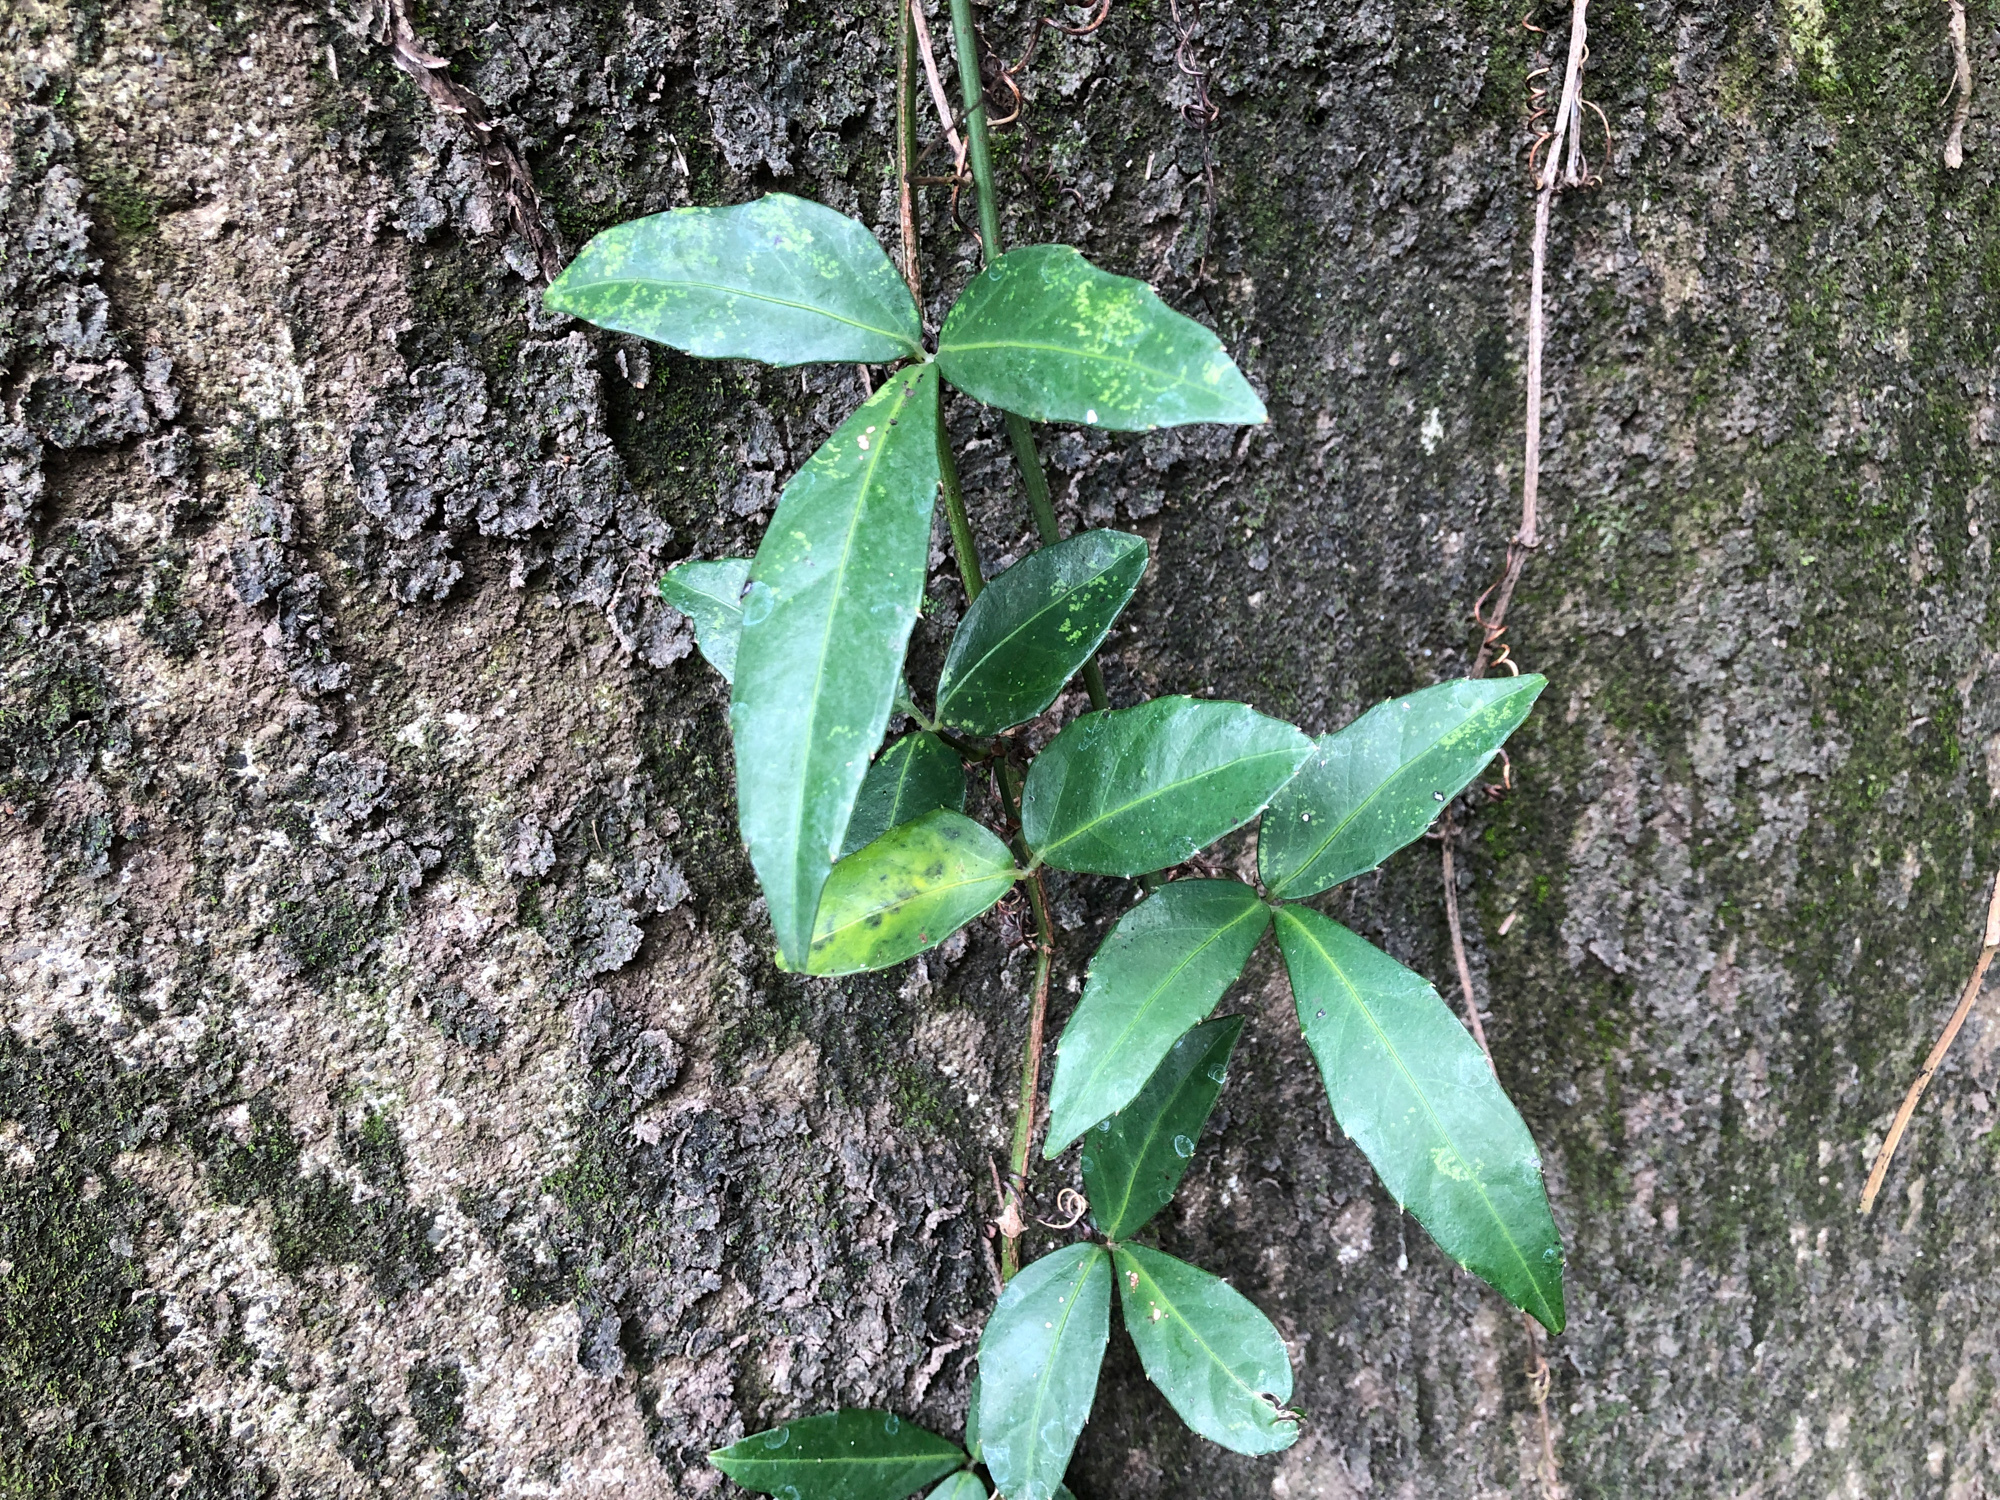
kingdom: Plantae
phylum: Tracheophyta
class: Magnoliopsida
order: Vitales
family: Vitaceae
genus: Tetrastigma
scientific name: Tetrastigma formosanum
